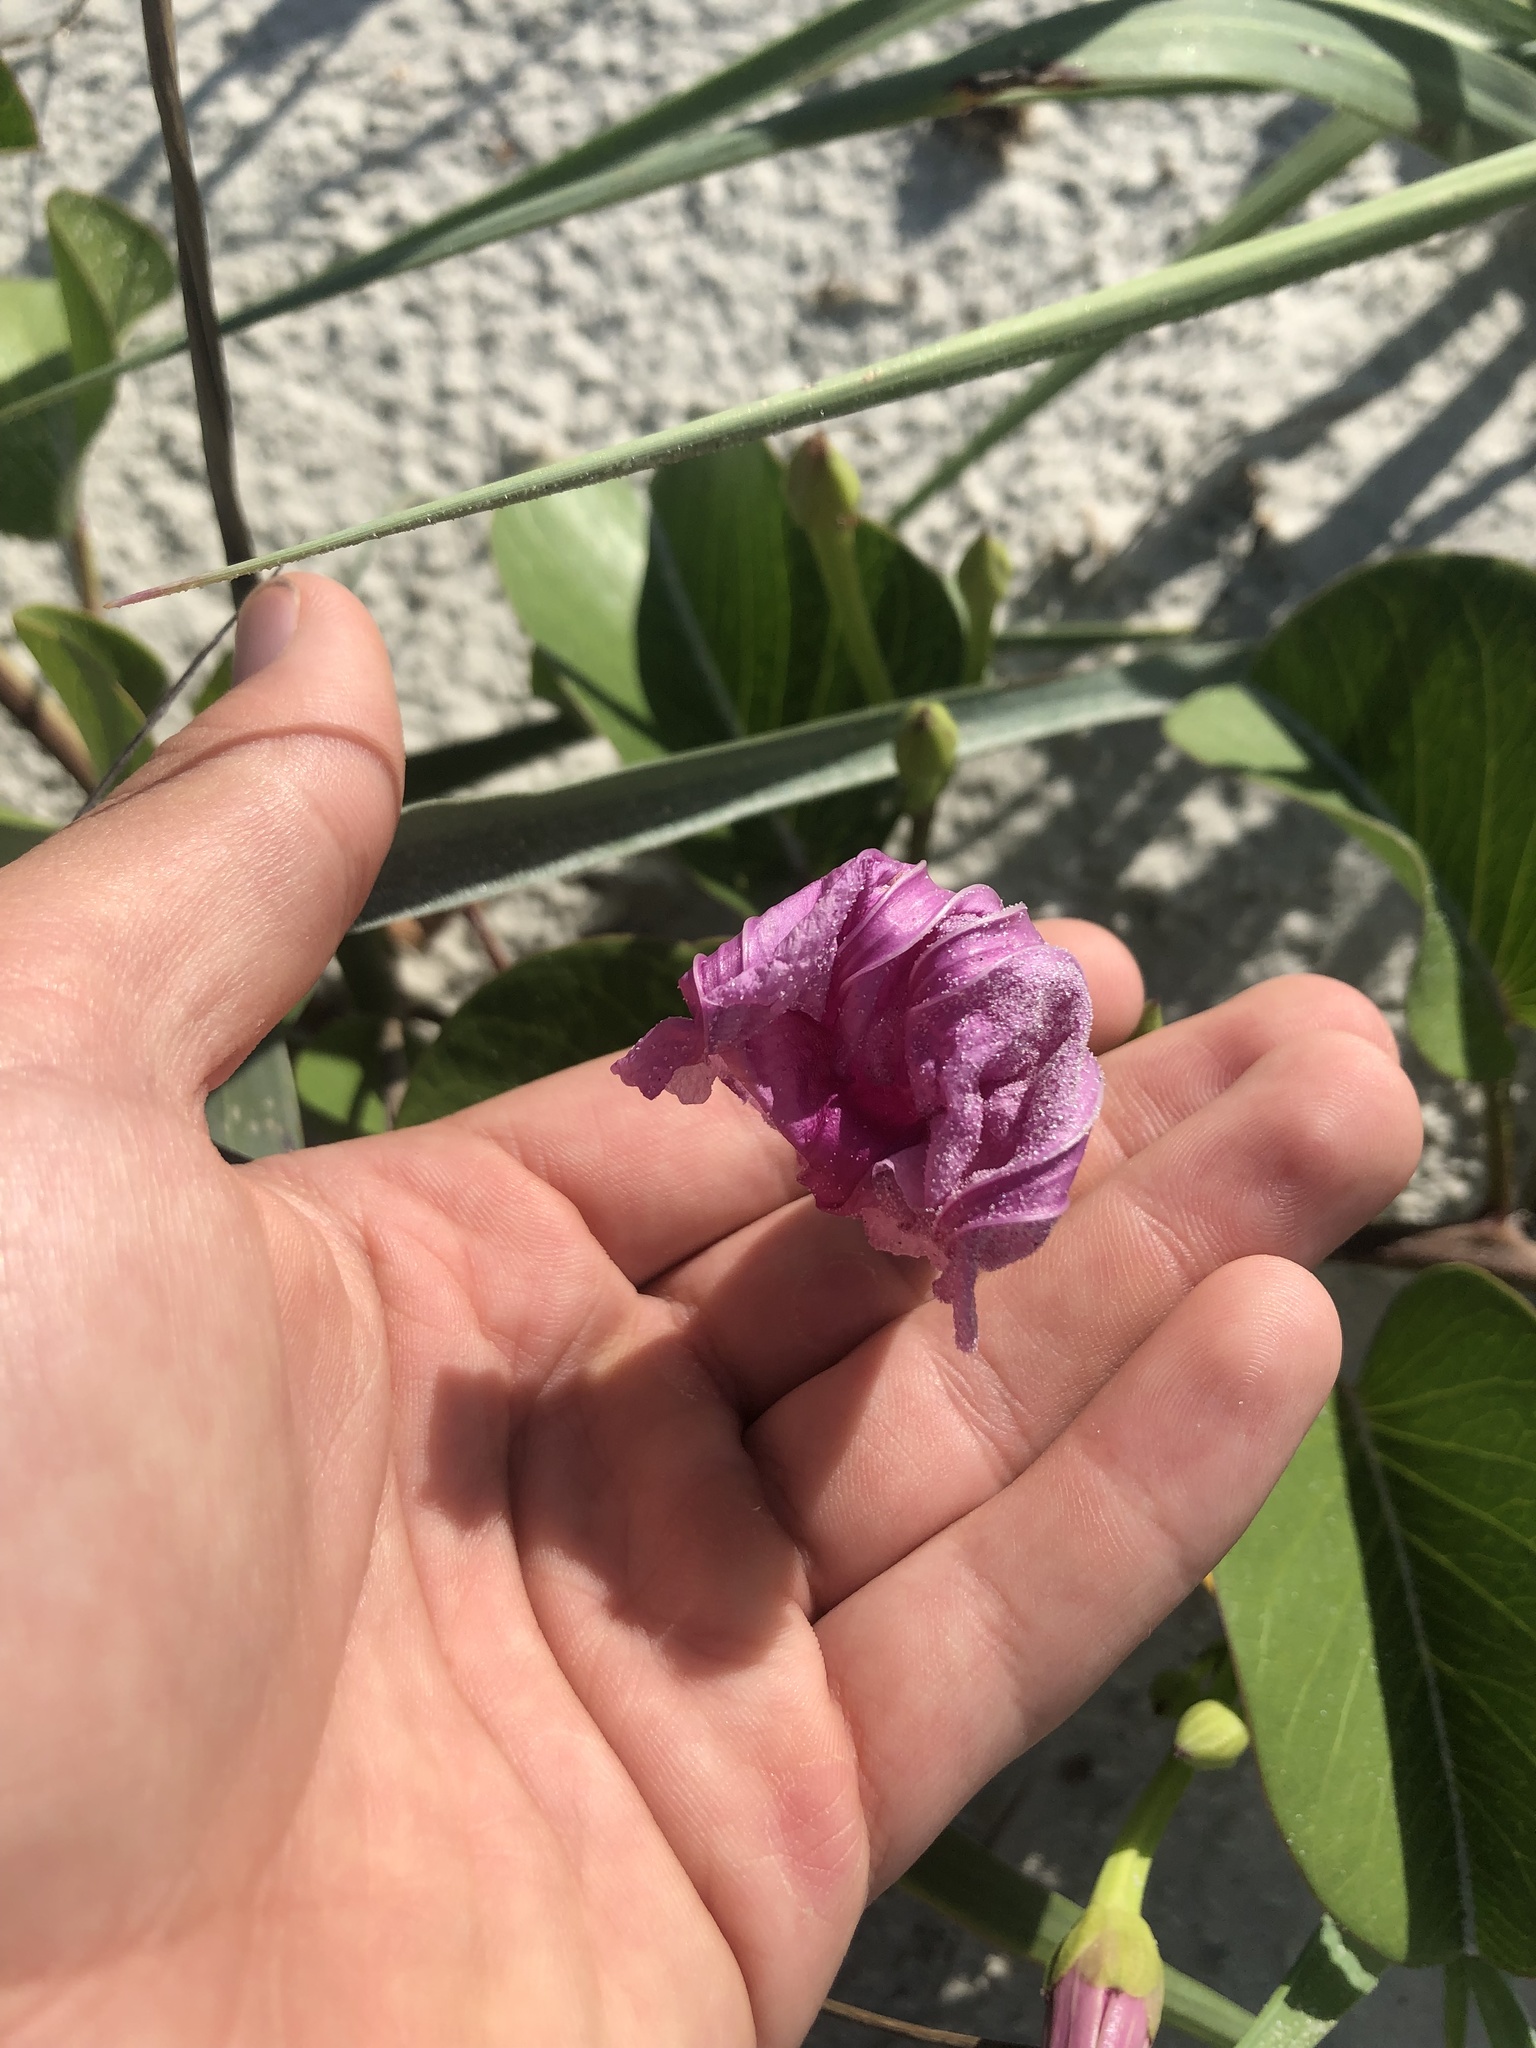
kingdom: Plantae
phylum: Tracheophyta
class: Magnoliopsida
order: Solanales
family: Convolvulaceae
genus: Ipomoea
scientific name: Ipomoea pes-caprae
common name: Beach morning glory
